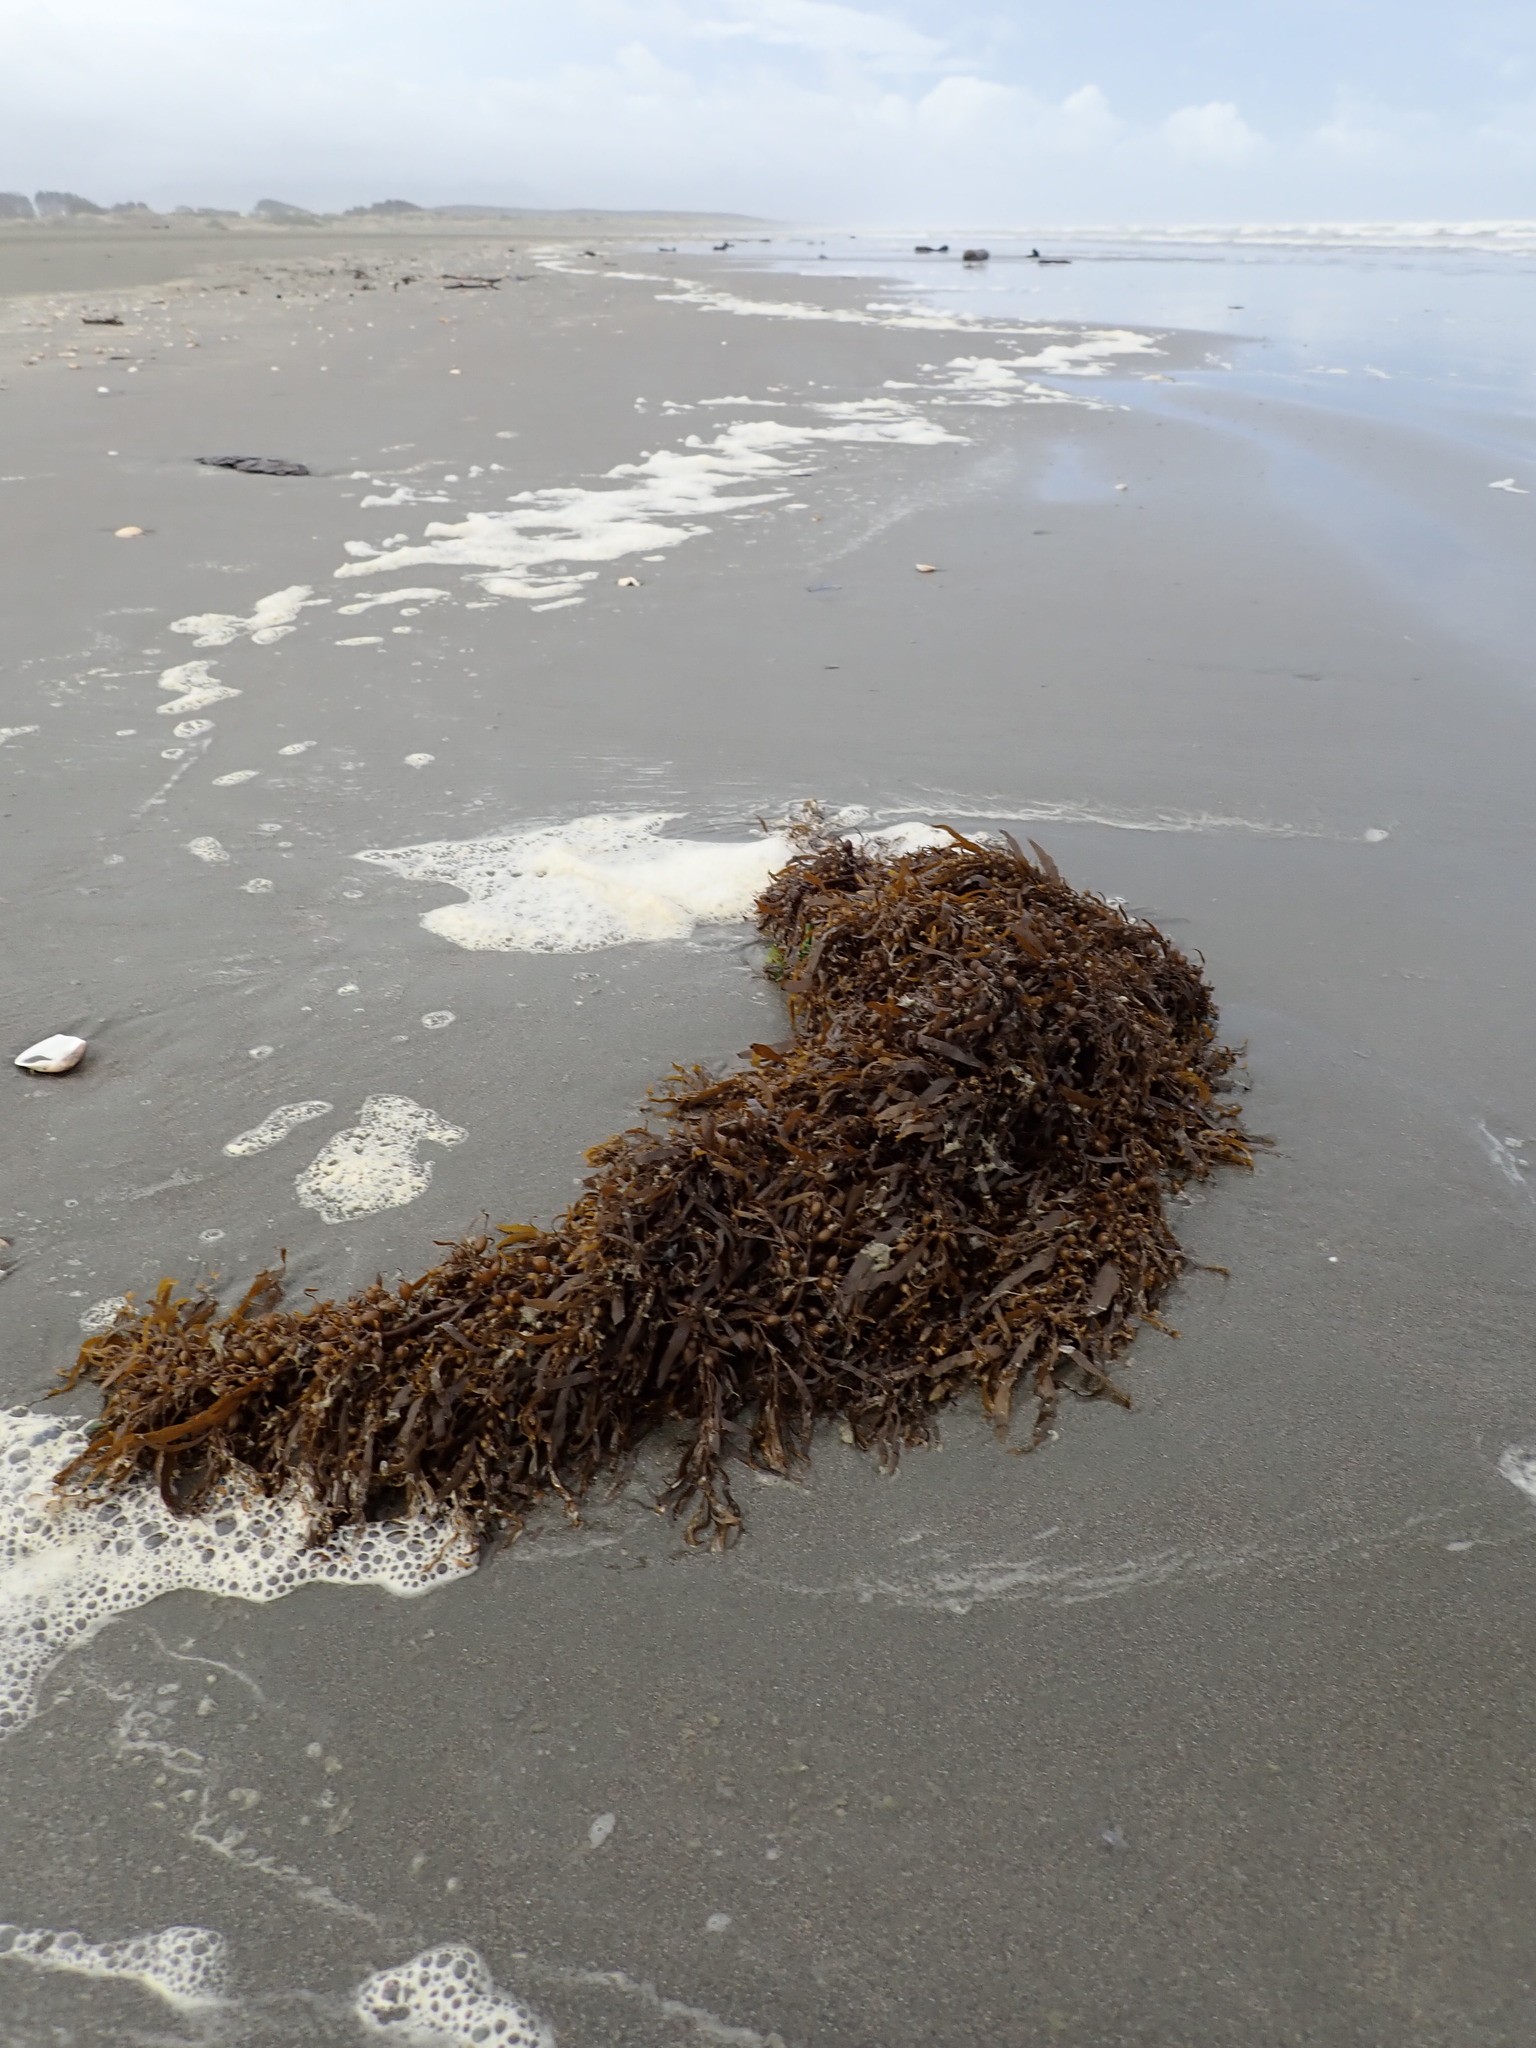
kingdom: Chromista
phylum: Ochrophyta
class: Phaeophyceae
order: Fucales
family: Sargassaceae
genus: Sargassum
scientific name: Sargassum sinclairii
